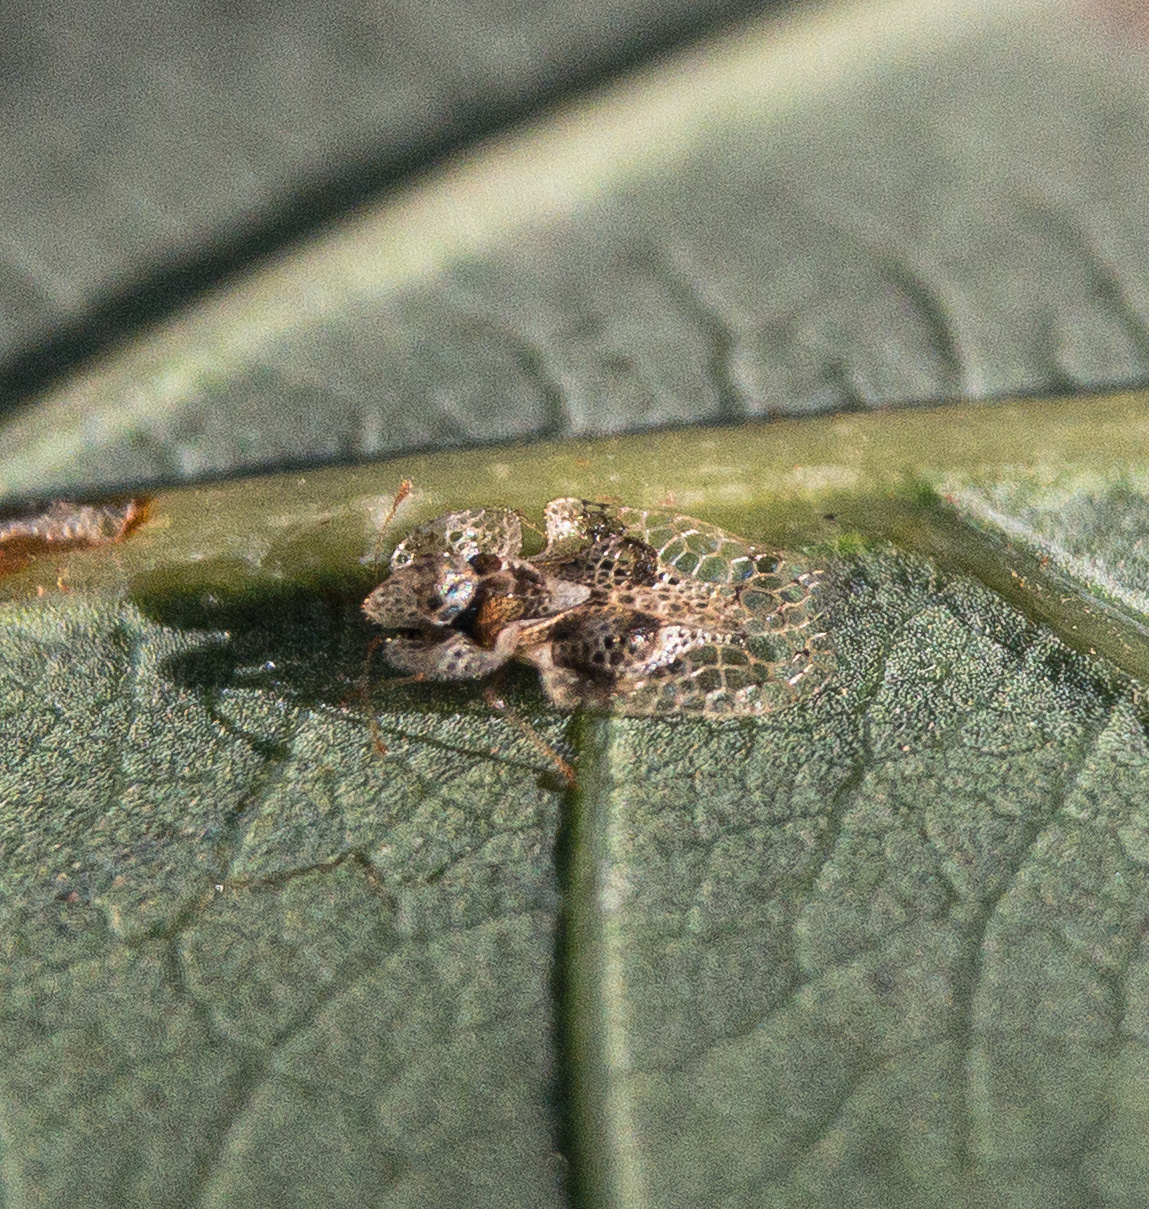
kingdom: Animalia
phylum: Arthropoda
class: Insecta
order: Hemiptera
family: Tingidae
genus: Corythucha
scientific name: Corythucha arcuata
